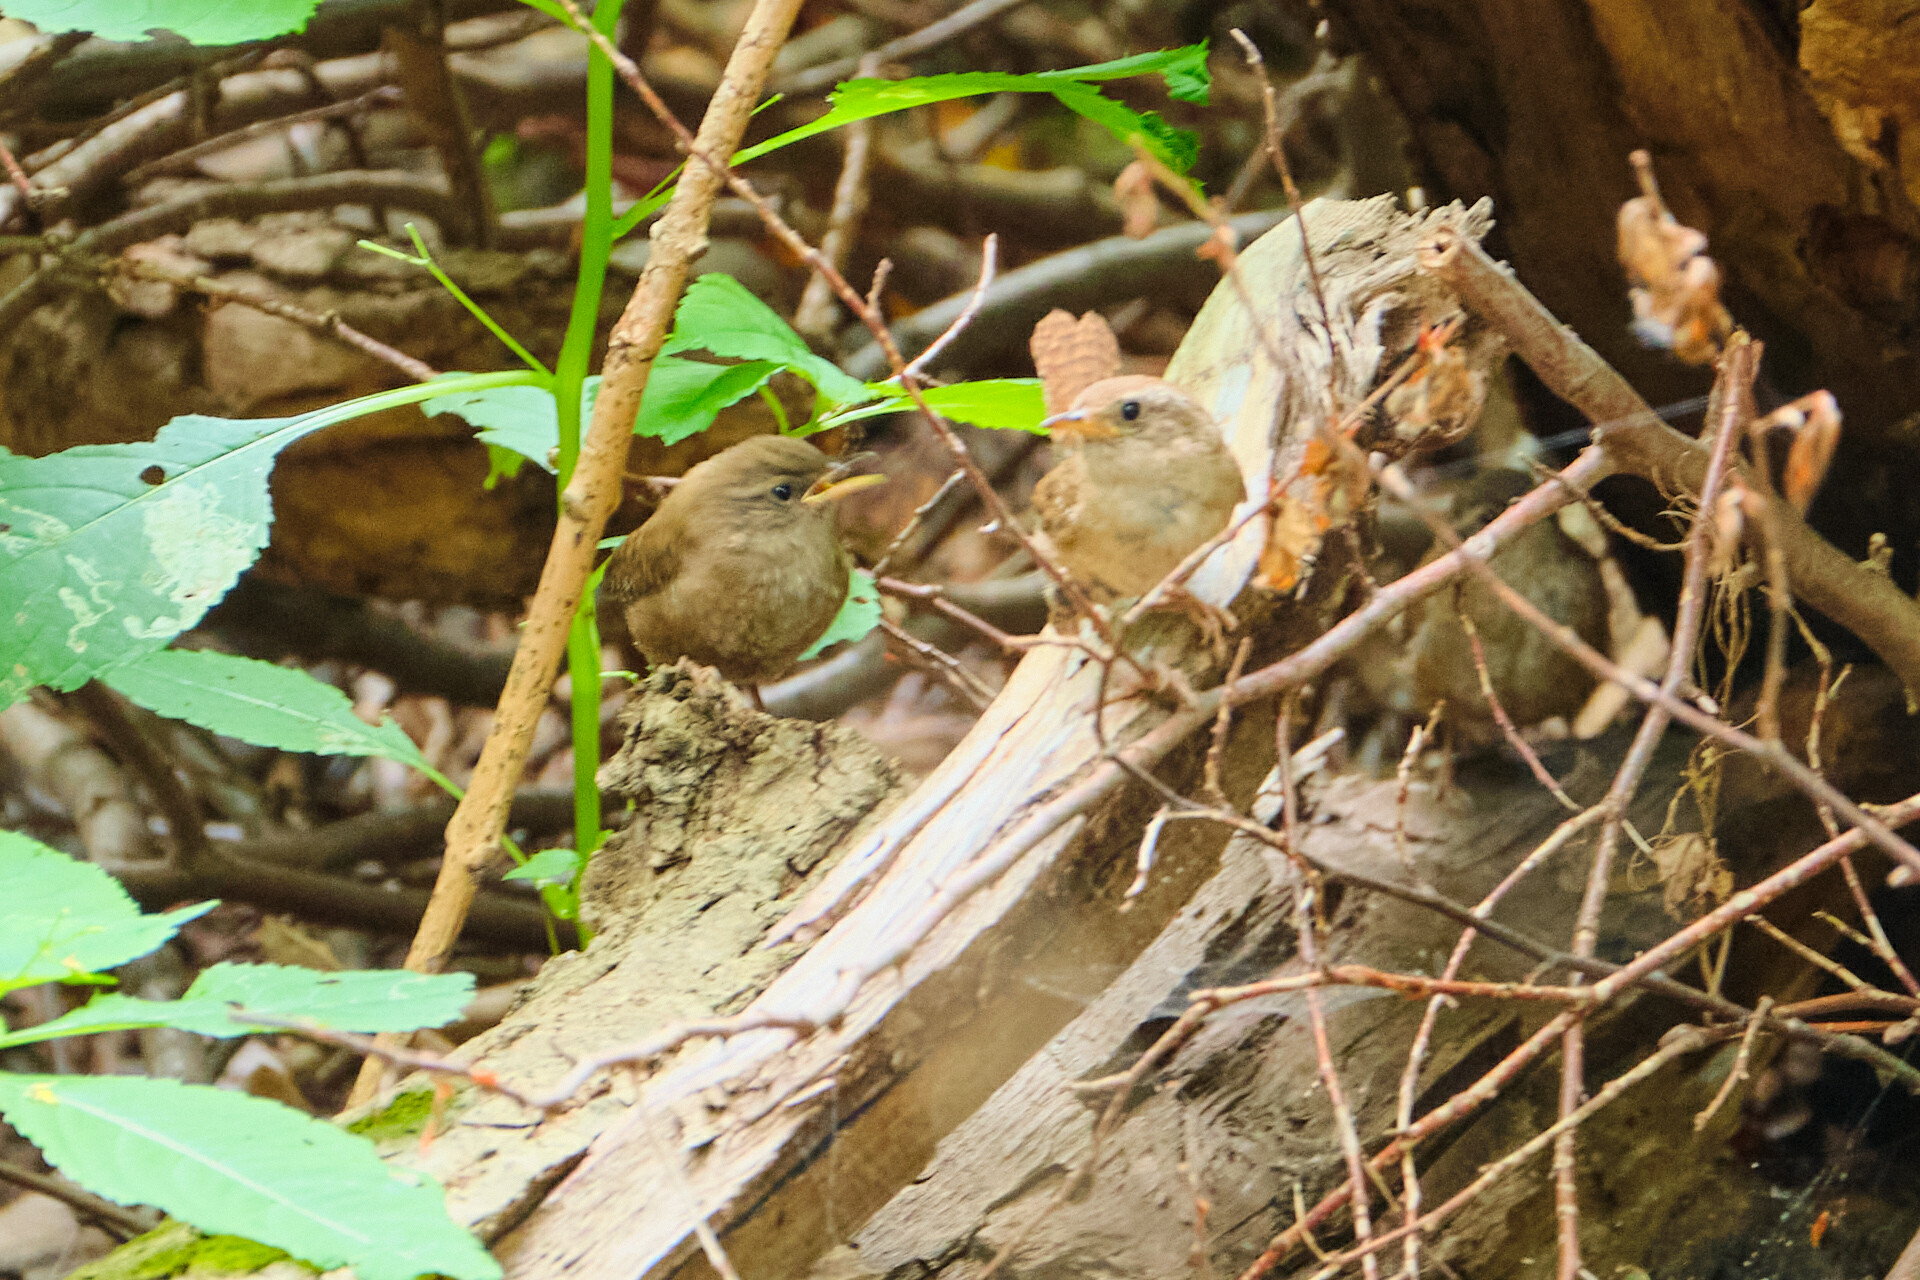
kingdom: Animalia
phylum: Chordata
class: Aves
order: Passeriformes
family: Troglodytidae
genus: Troglodytes
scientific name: Troglodytes troglodytes
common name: Eurasian wren
